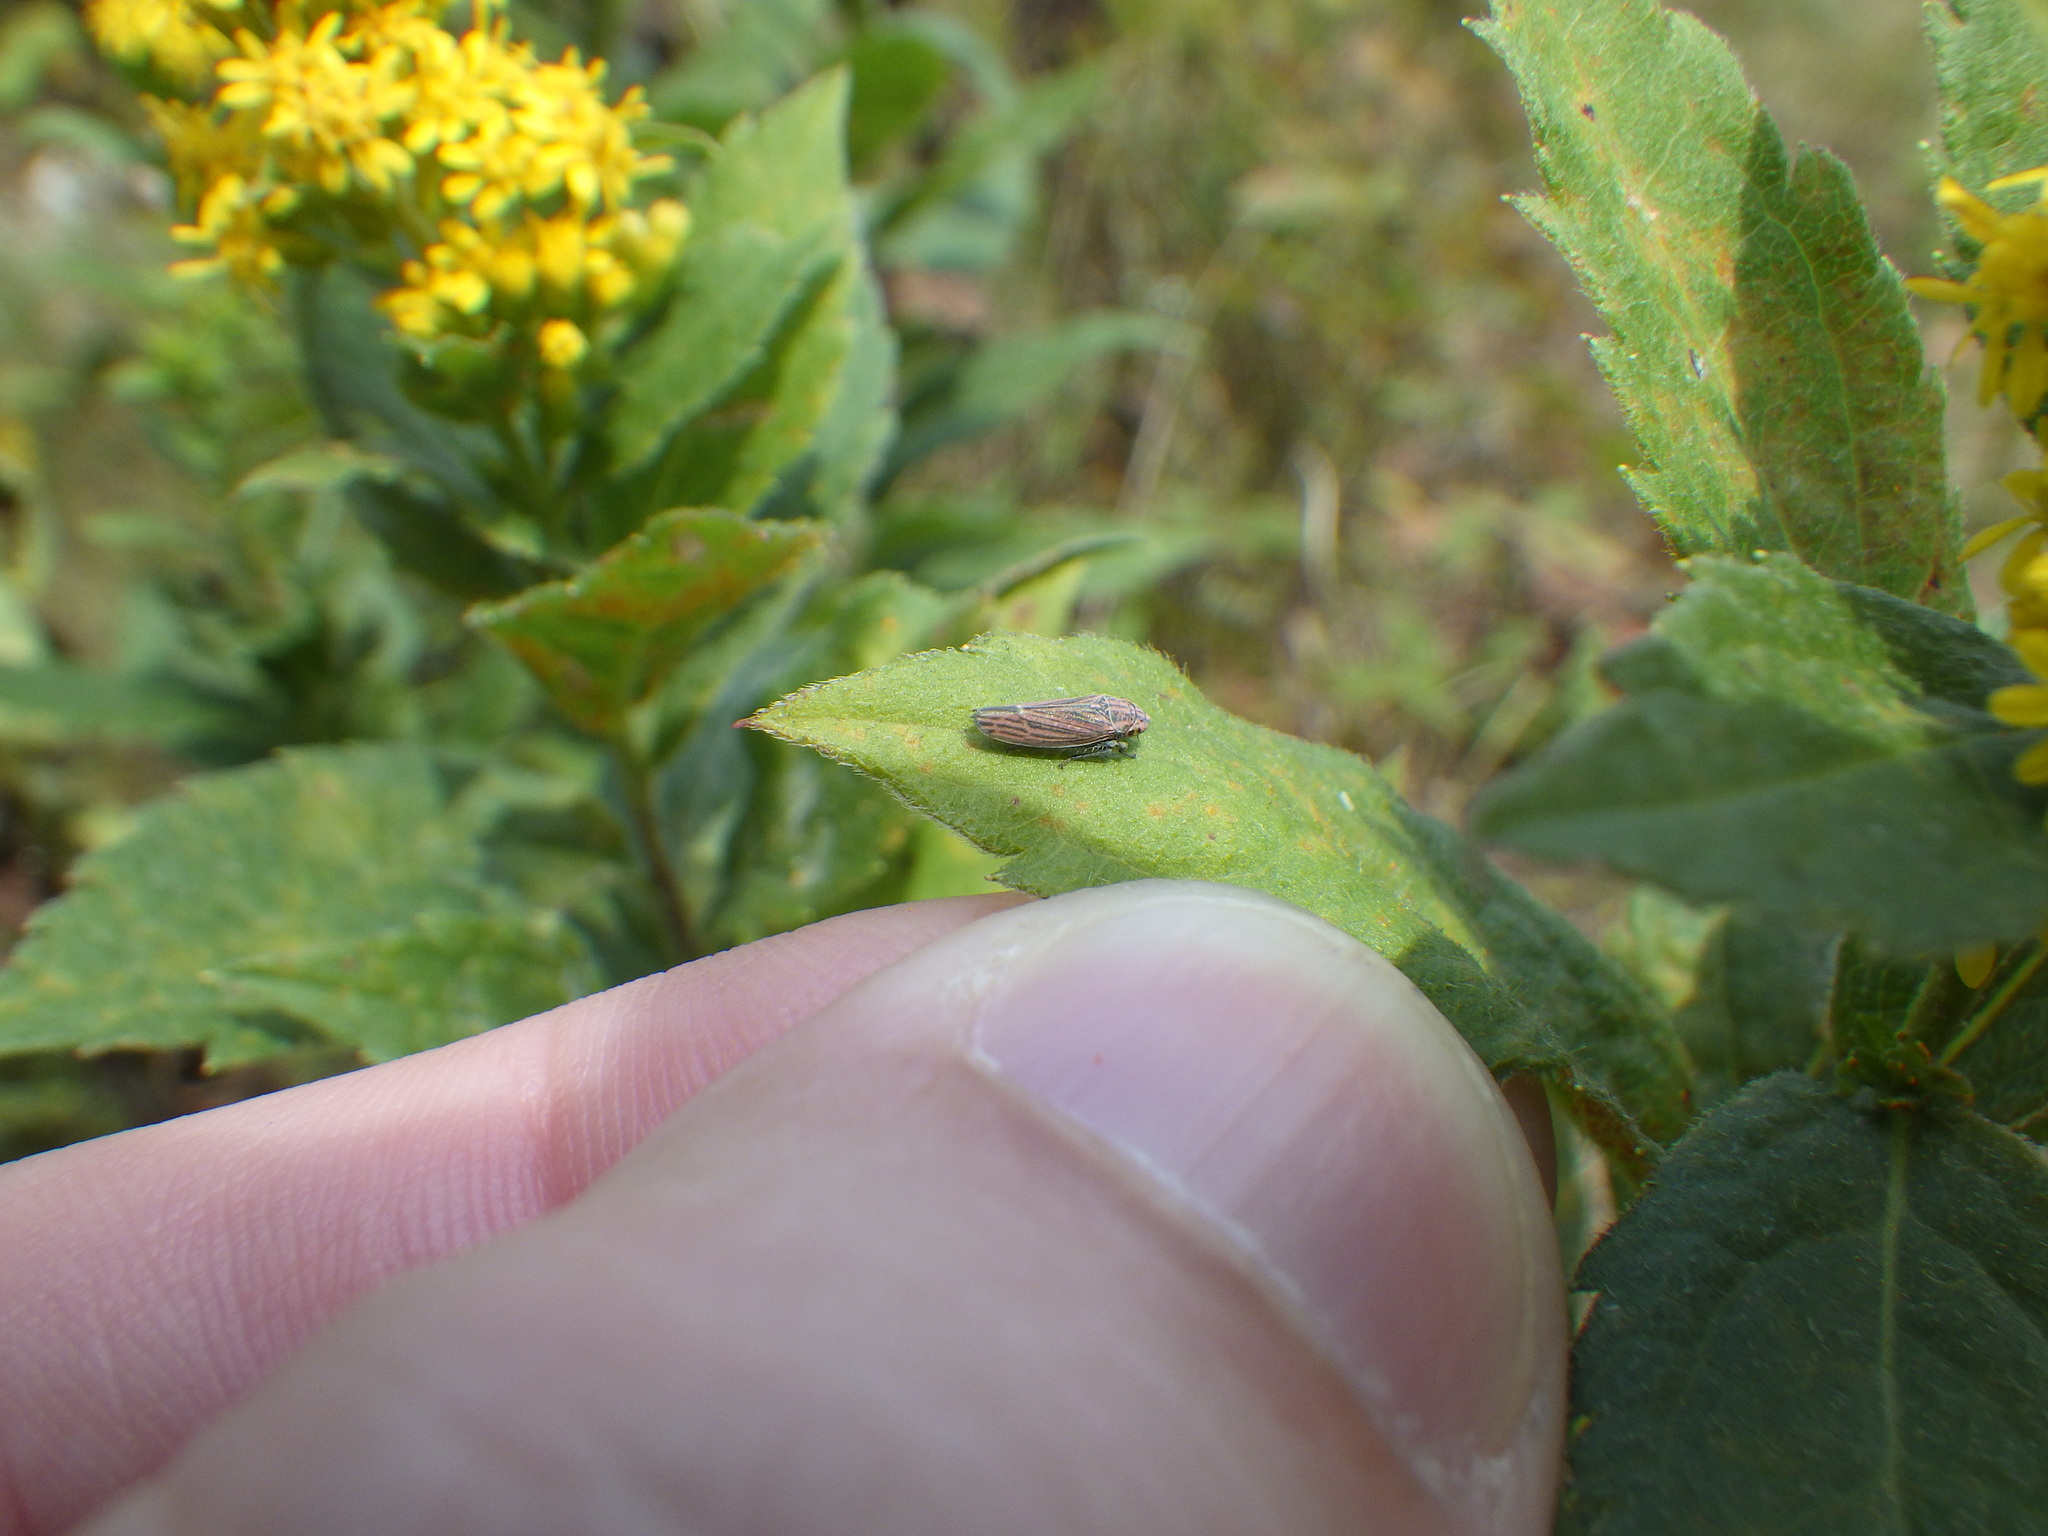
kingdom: Animalia
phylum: Arthropoda
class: Insecta
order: Hemiptera
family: Cicadellidae
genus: Neokolla
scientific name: Neokolla hieroglyphica
